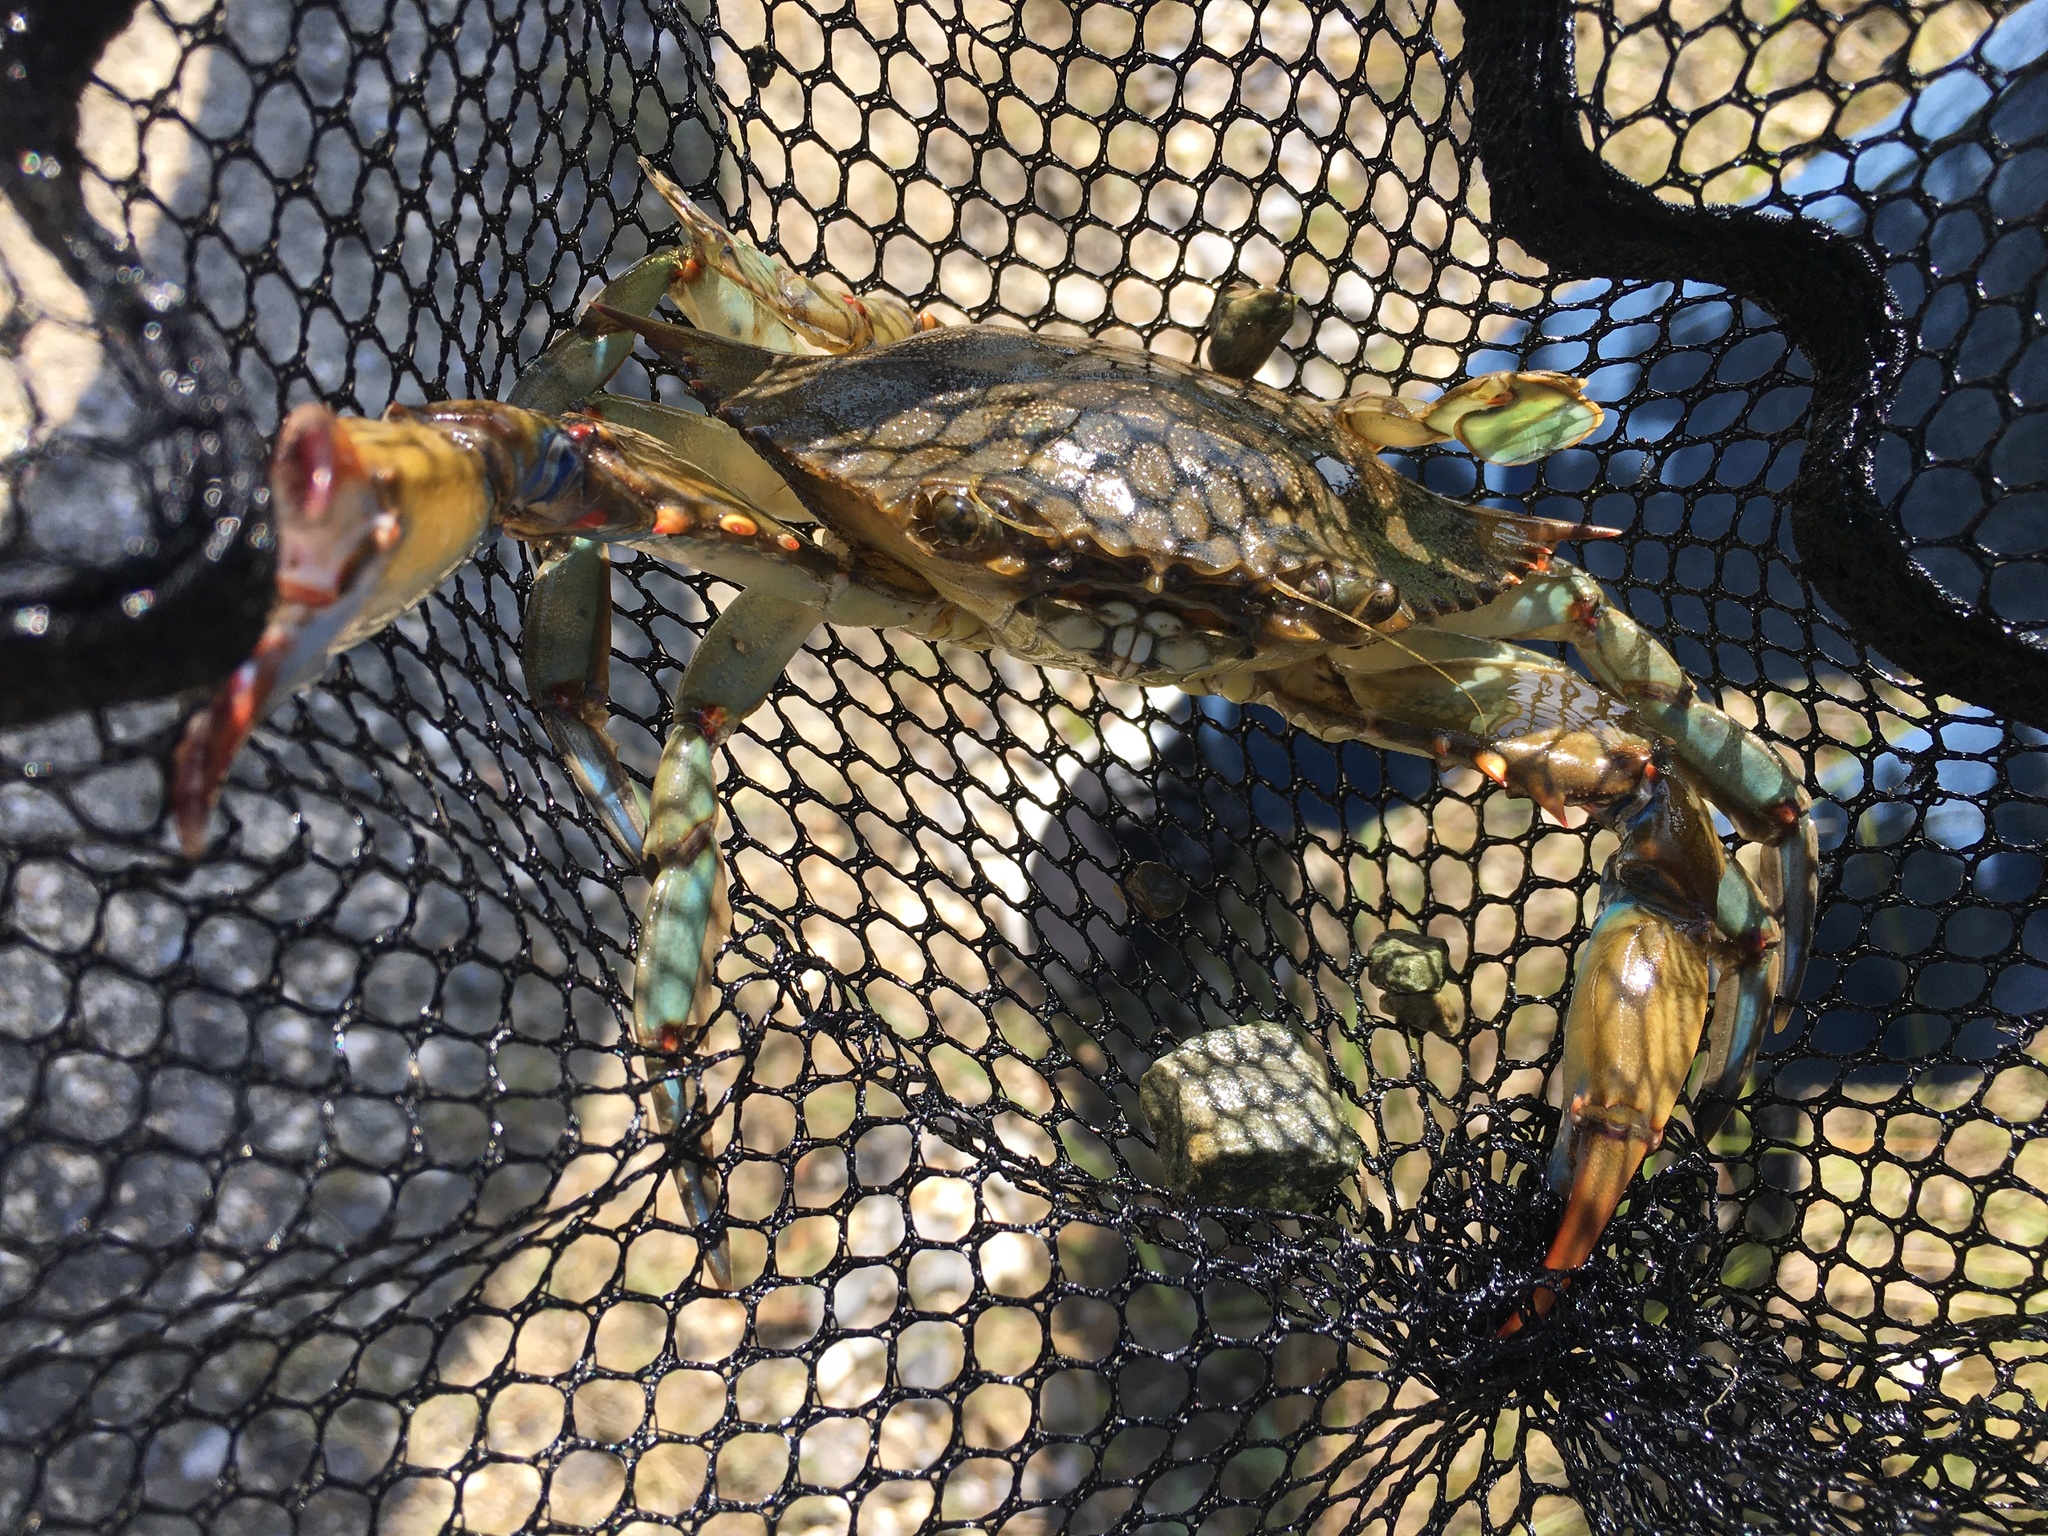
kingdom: Animalia
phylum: Arthropoda
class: Malacostraca
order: Decapoda
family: Portunidae
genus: Callinectes
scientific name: Callinectes sapidus
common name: Blue crab
